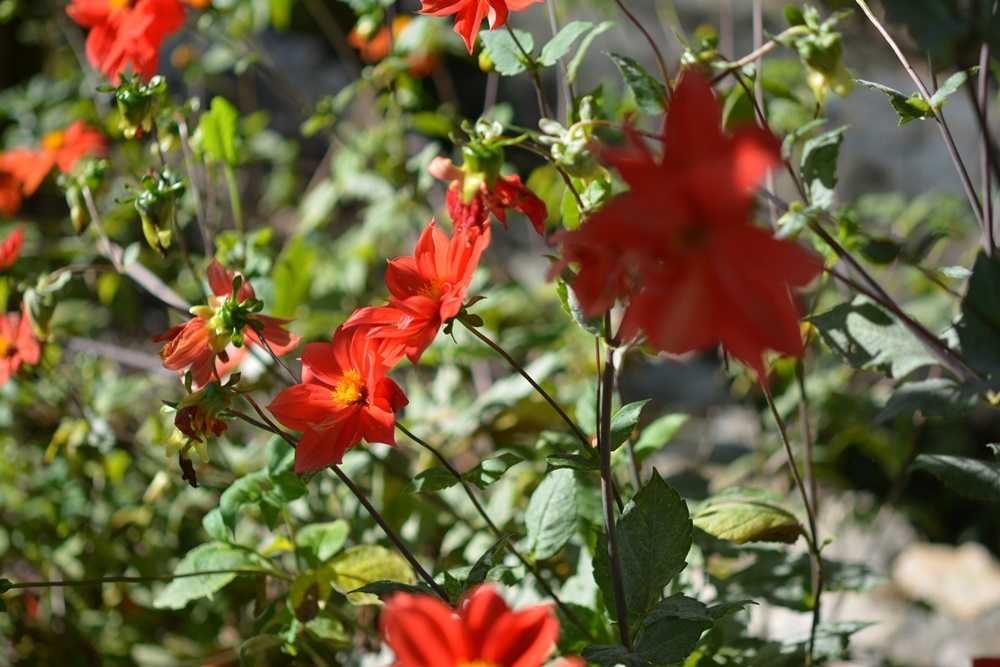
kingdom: Plantae
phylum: Tracheophyta
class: Magnoliopsida
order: Asterales
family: Asteraceae
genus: Dahlia
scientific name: Dahlia coccinea
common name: Red dahlia
